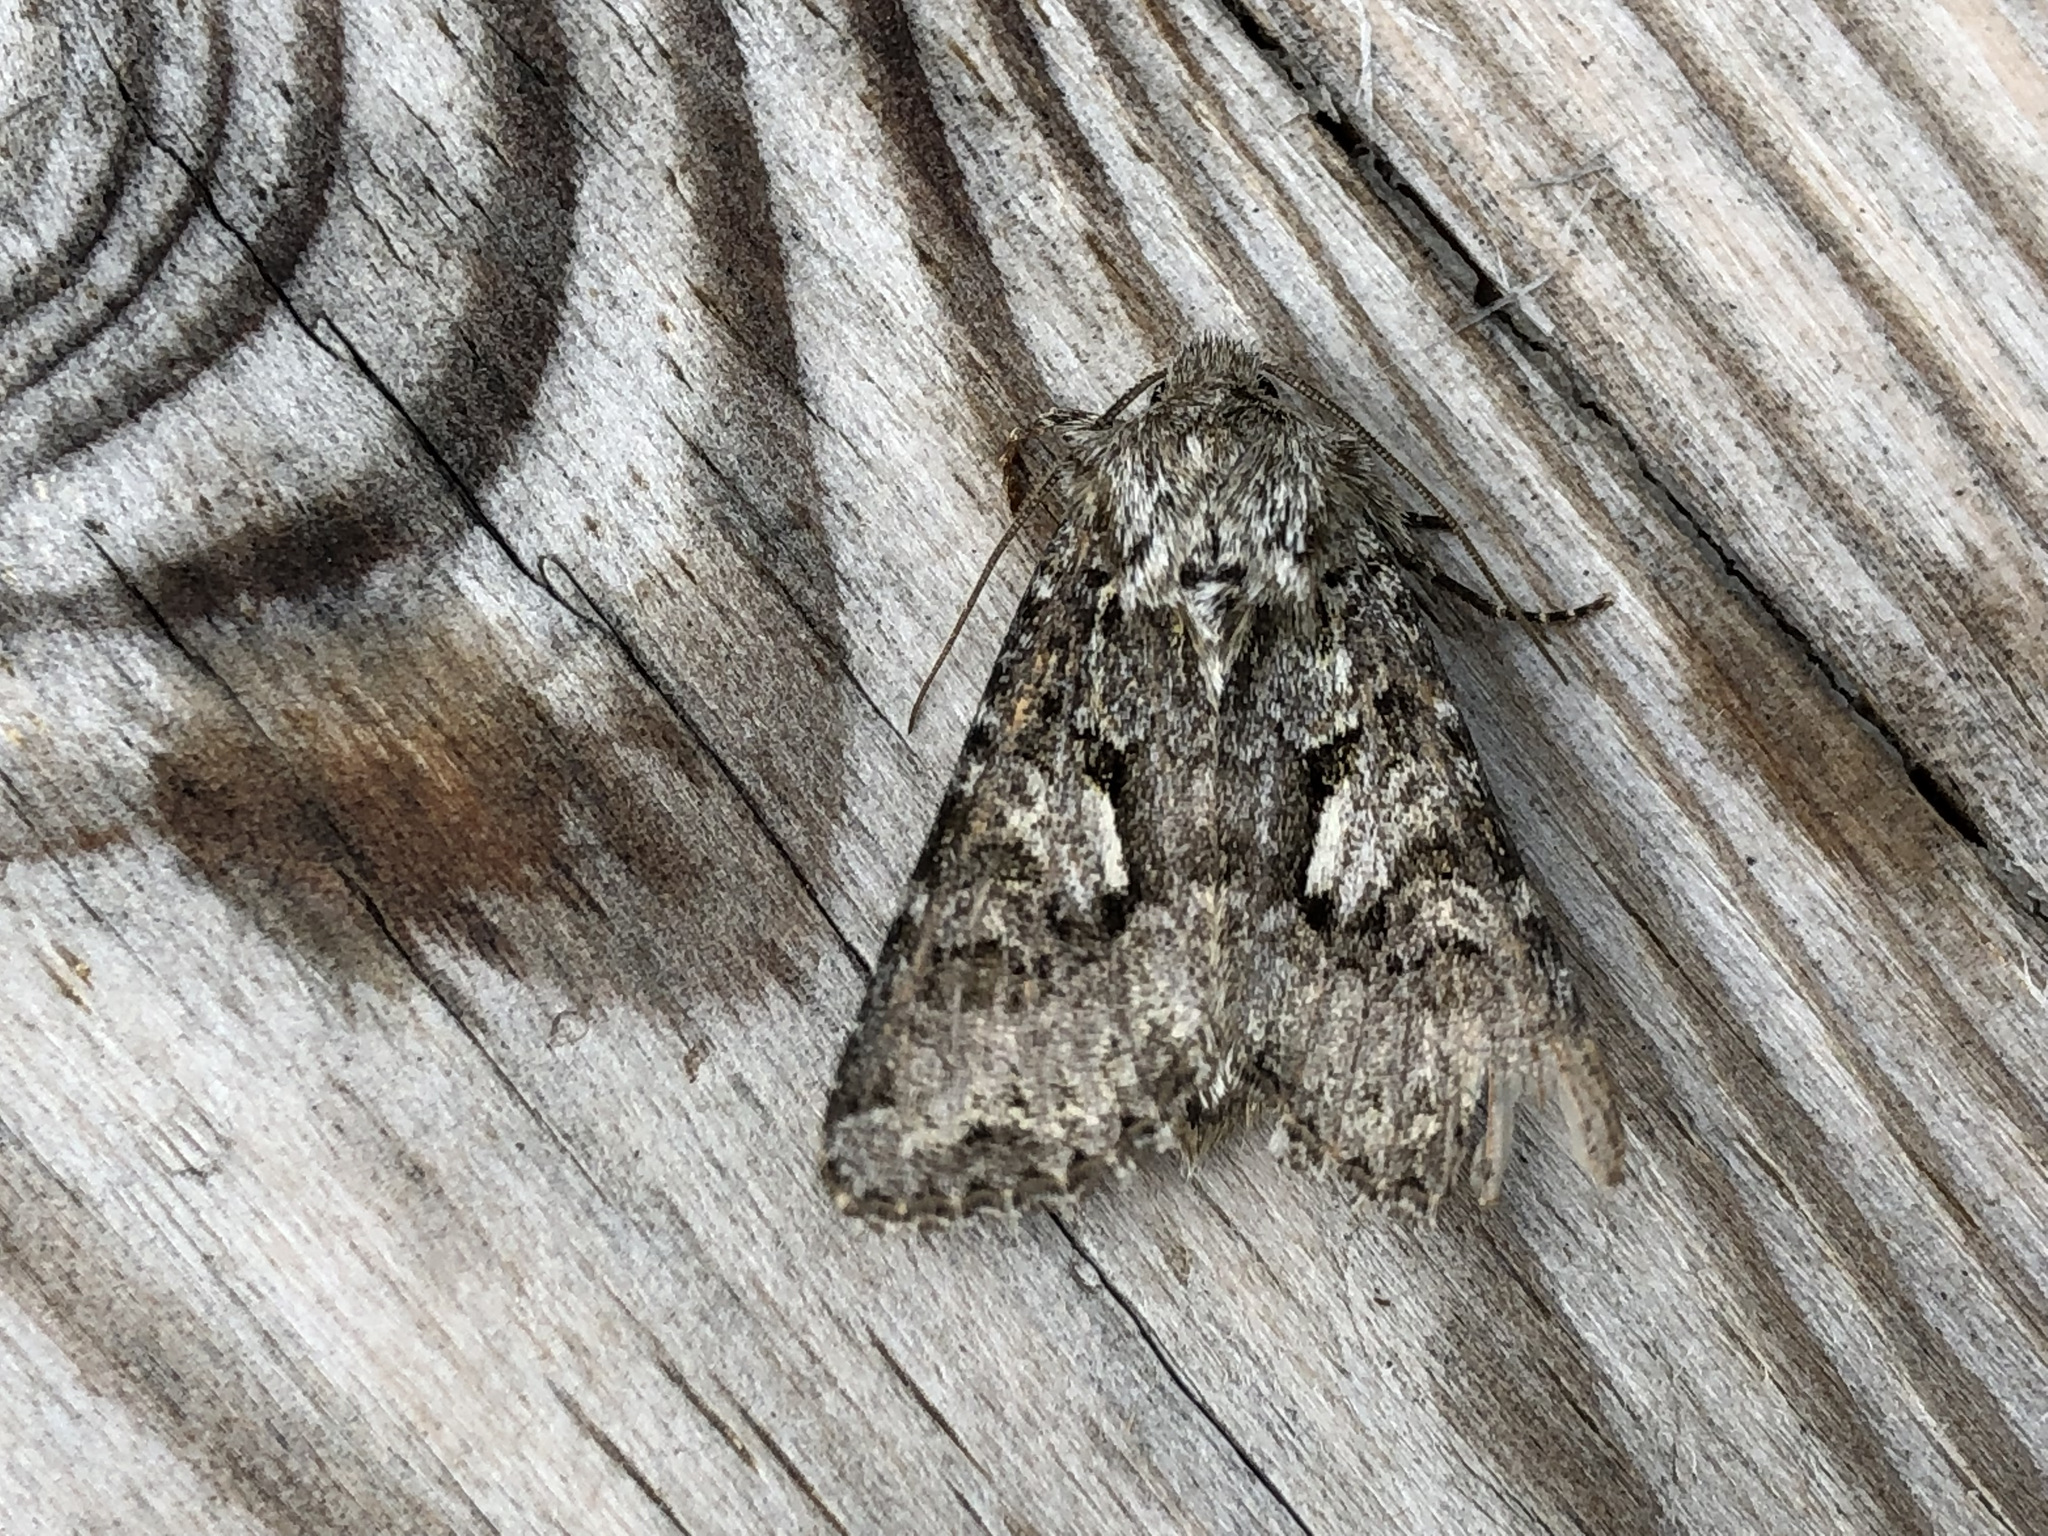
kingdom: Animalia
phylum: Arthropoda
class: Insecta
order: Lepidoptera
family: Noctuidae
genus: Hada
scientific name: Hada plebeja
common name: Shears
